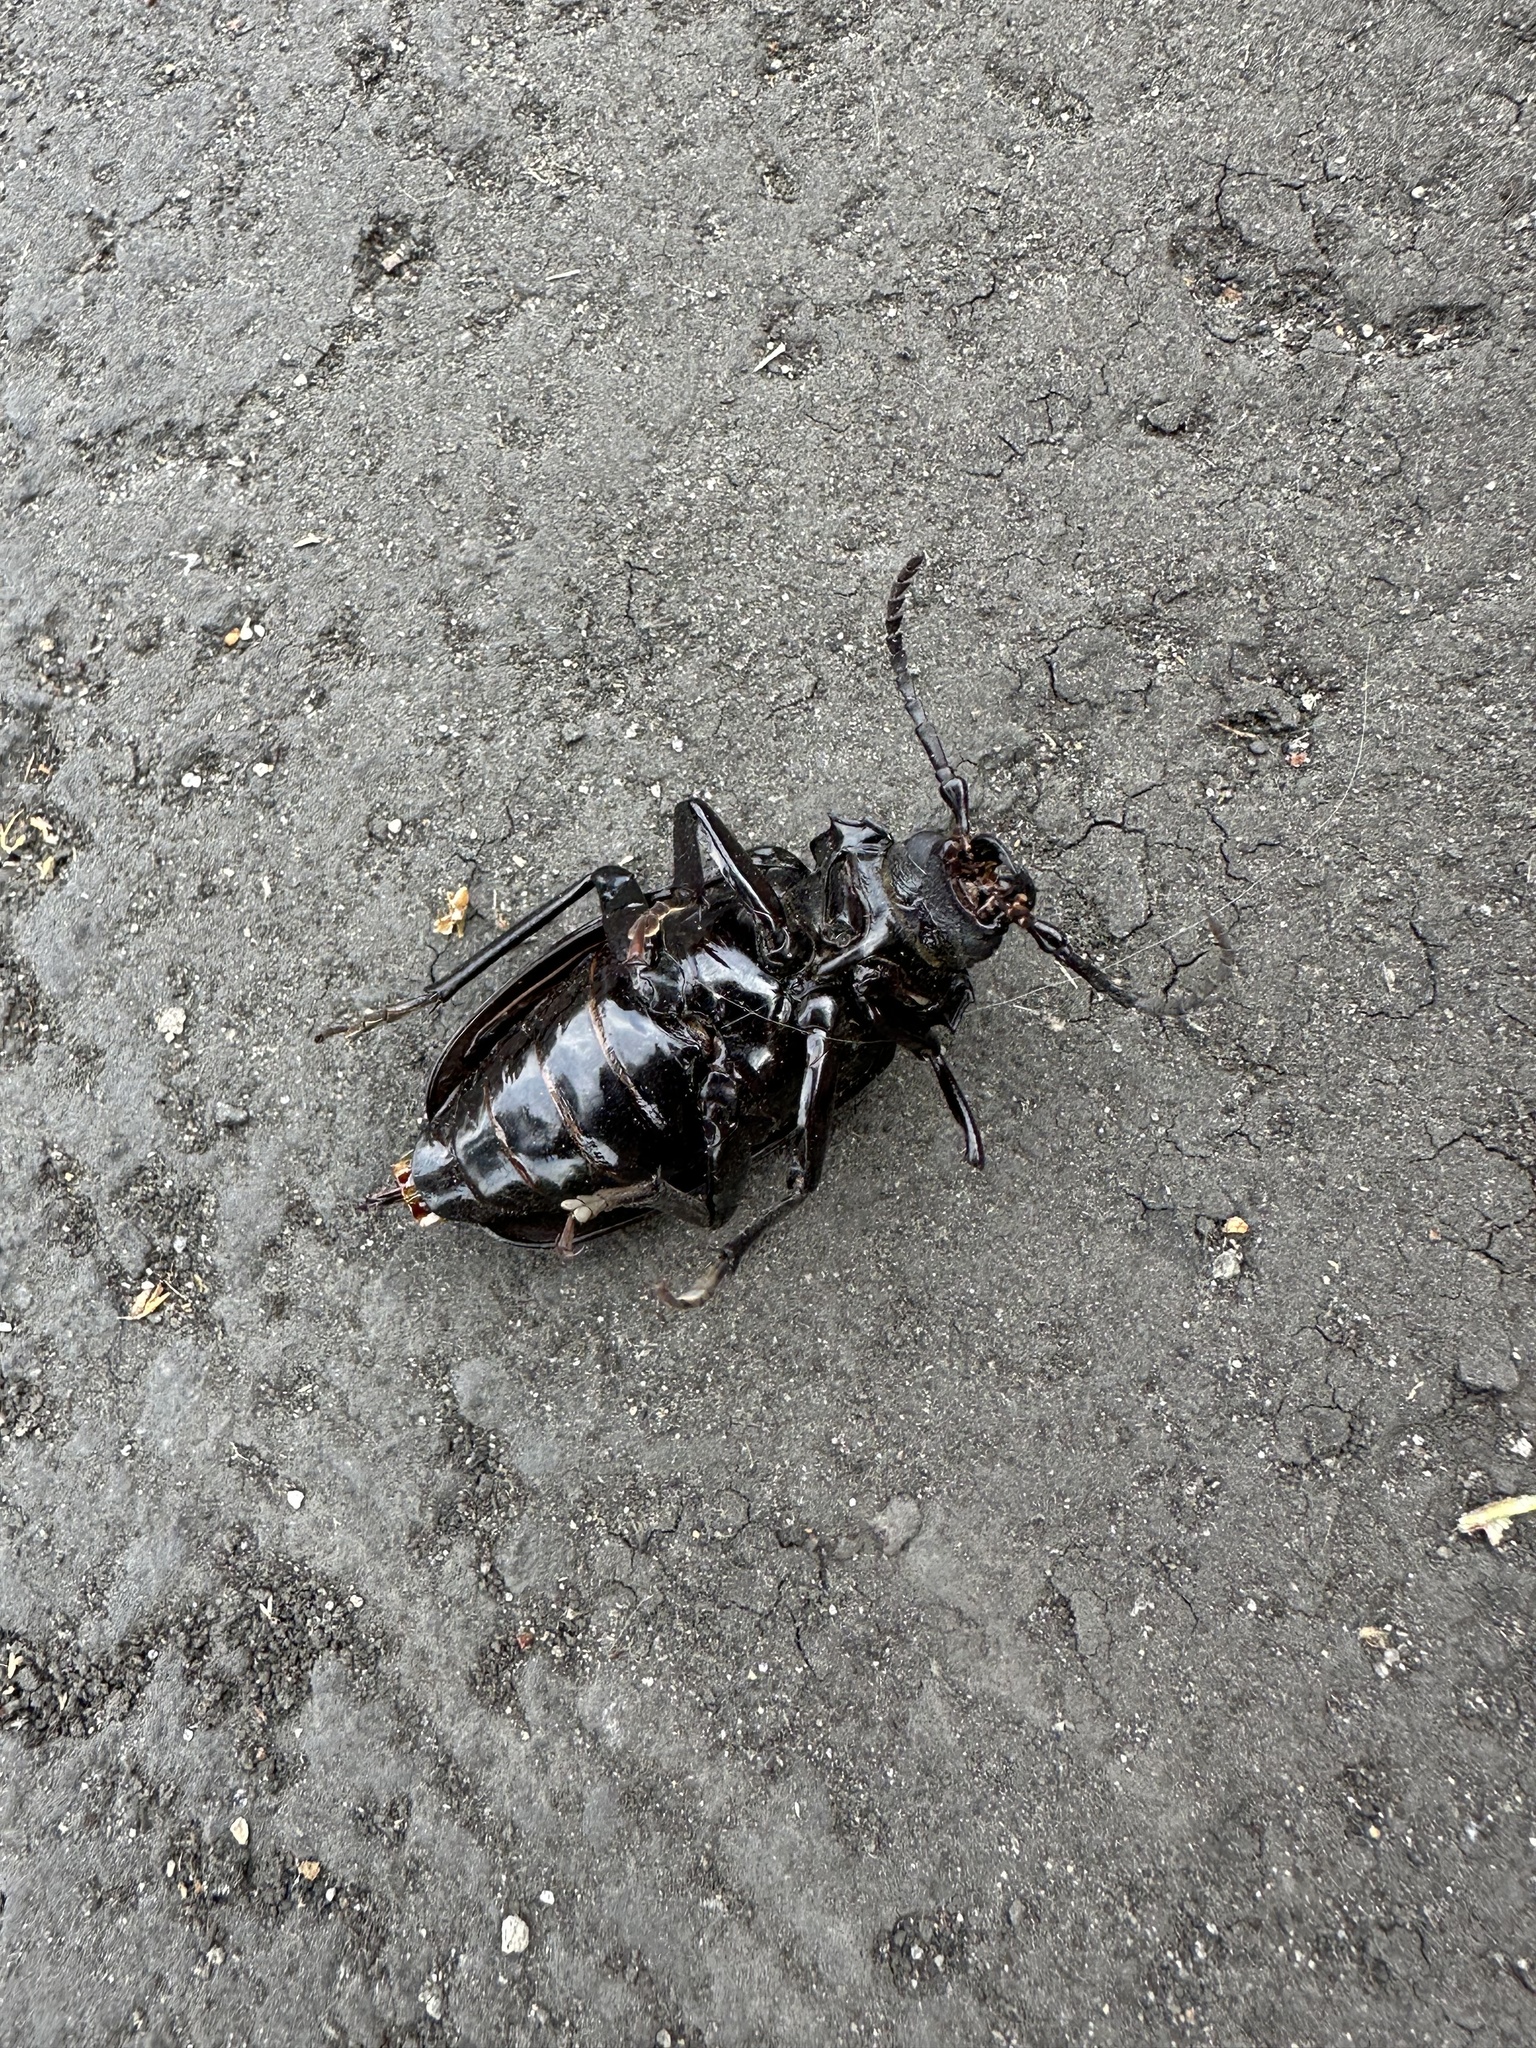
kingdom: Animalia
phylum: Arthropoda
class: Insecta
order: Coleoptera
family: Cerambycidae
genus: Prionus
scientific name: Prionus laticollis
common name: Broad necked prionus
